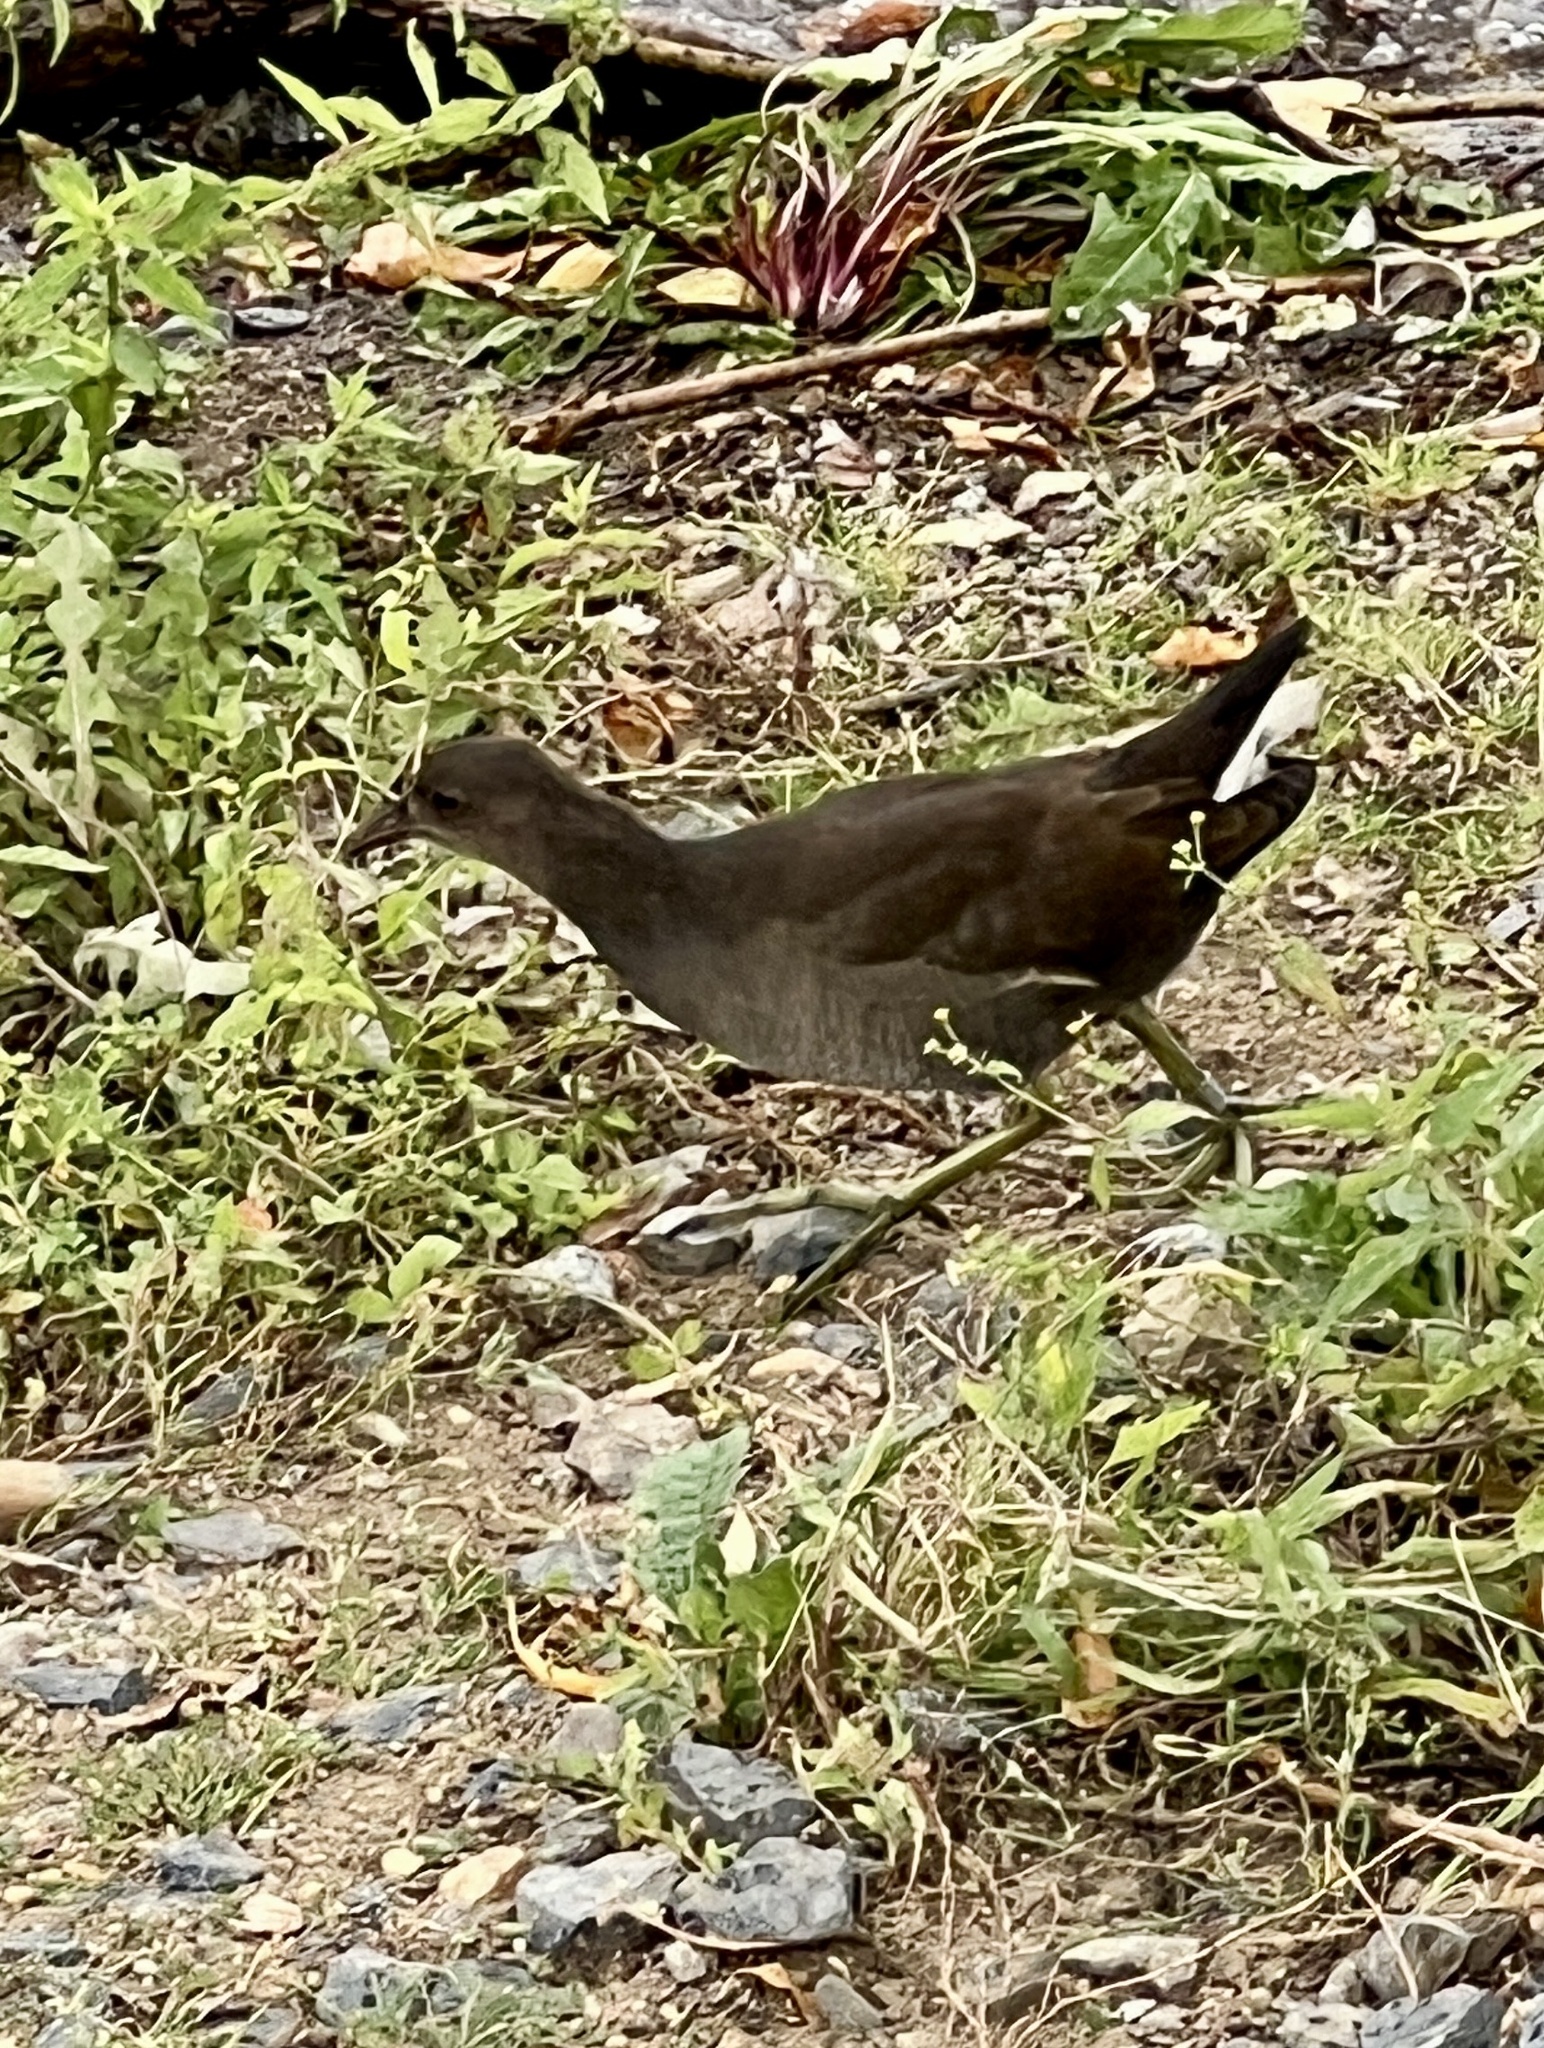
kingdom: Animalia
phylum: Chordata
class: Aves
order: Gruiformes
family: Rallidae
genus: Gallinula
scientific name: Gallinula chloropus
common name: Common moorhen
